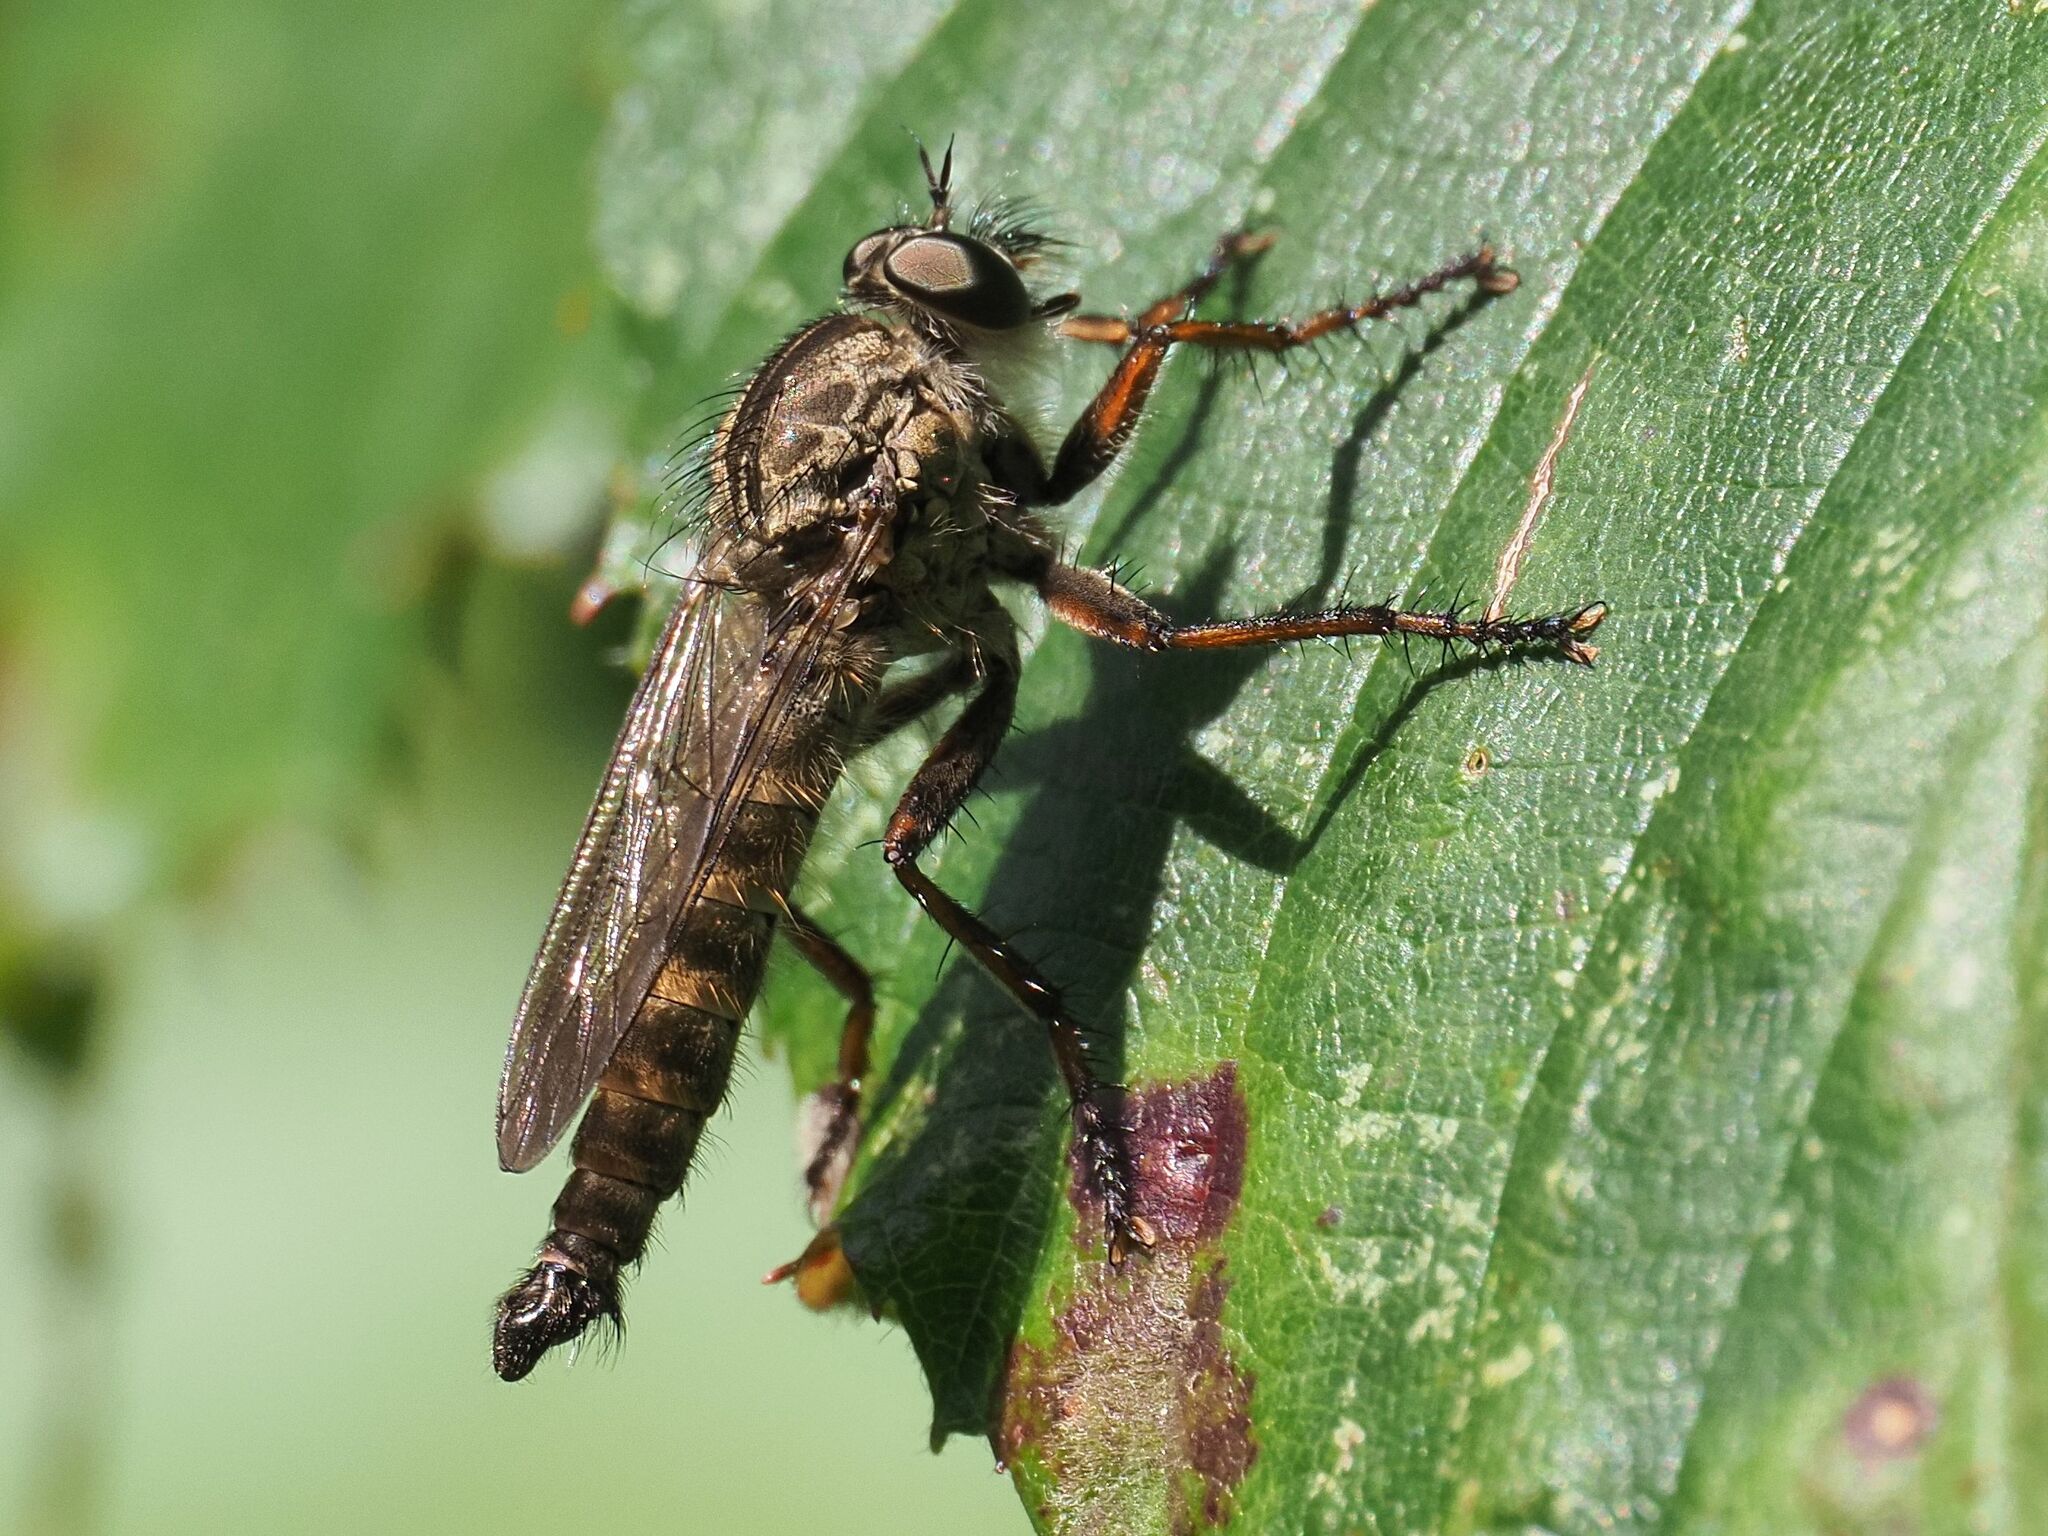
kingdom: Animalia
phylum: Arthropoda
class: Insecta
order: Diptera
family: Asilidae
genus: Machimus
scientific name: Machimus atricapillus
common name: Kite-tailed robberfly
